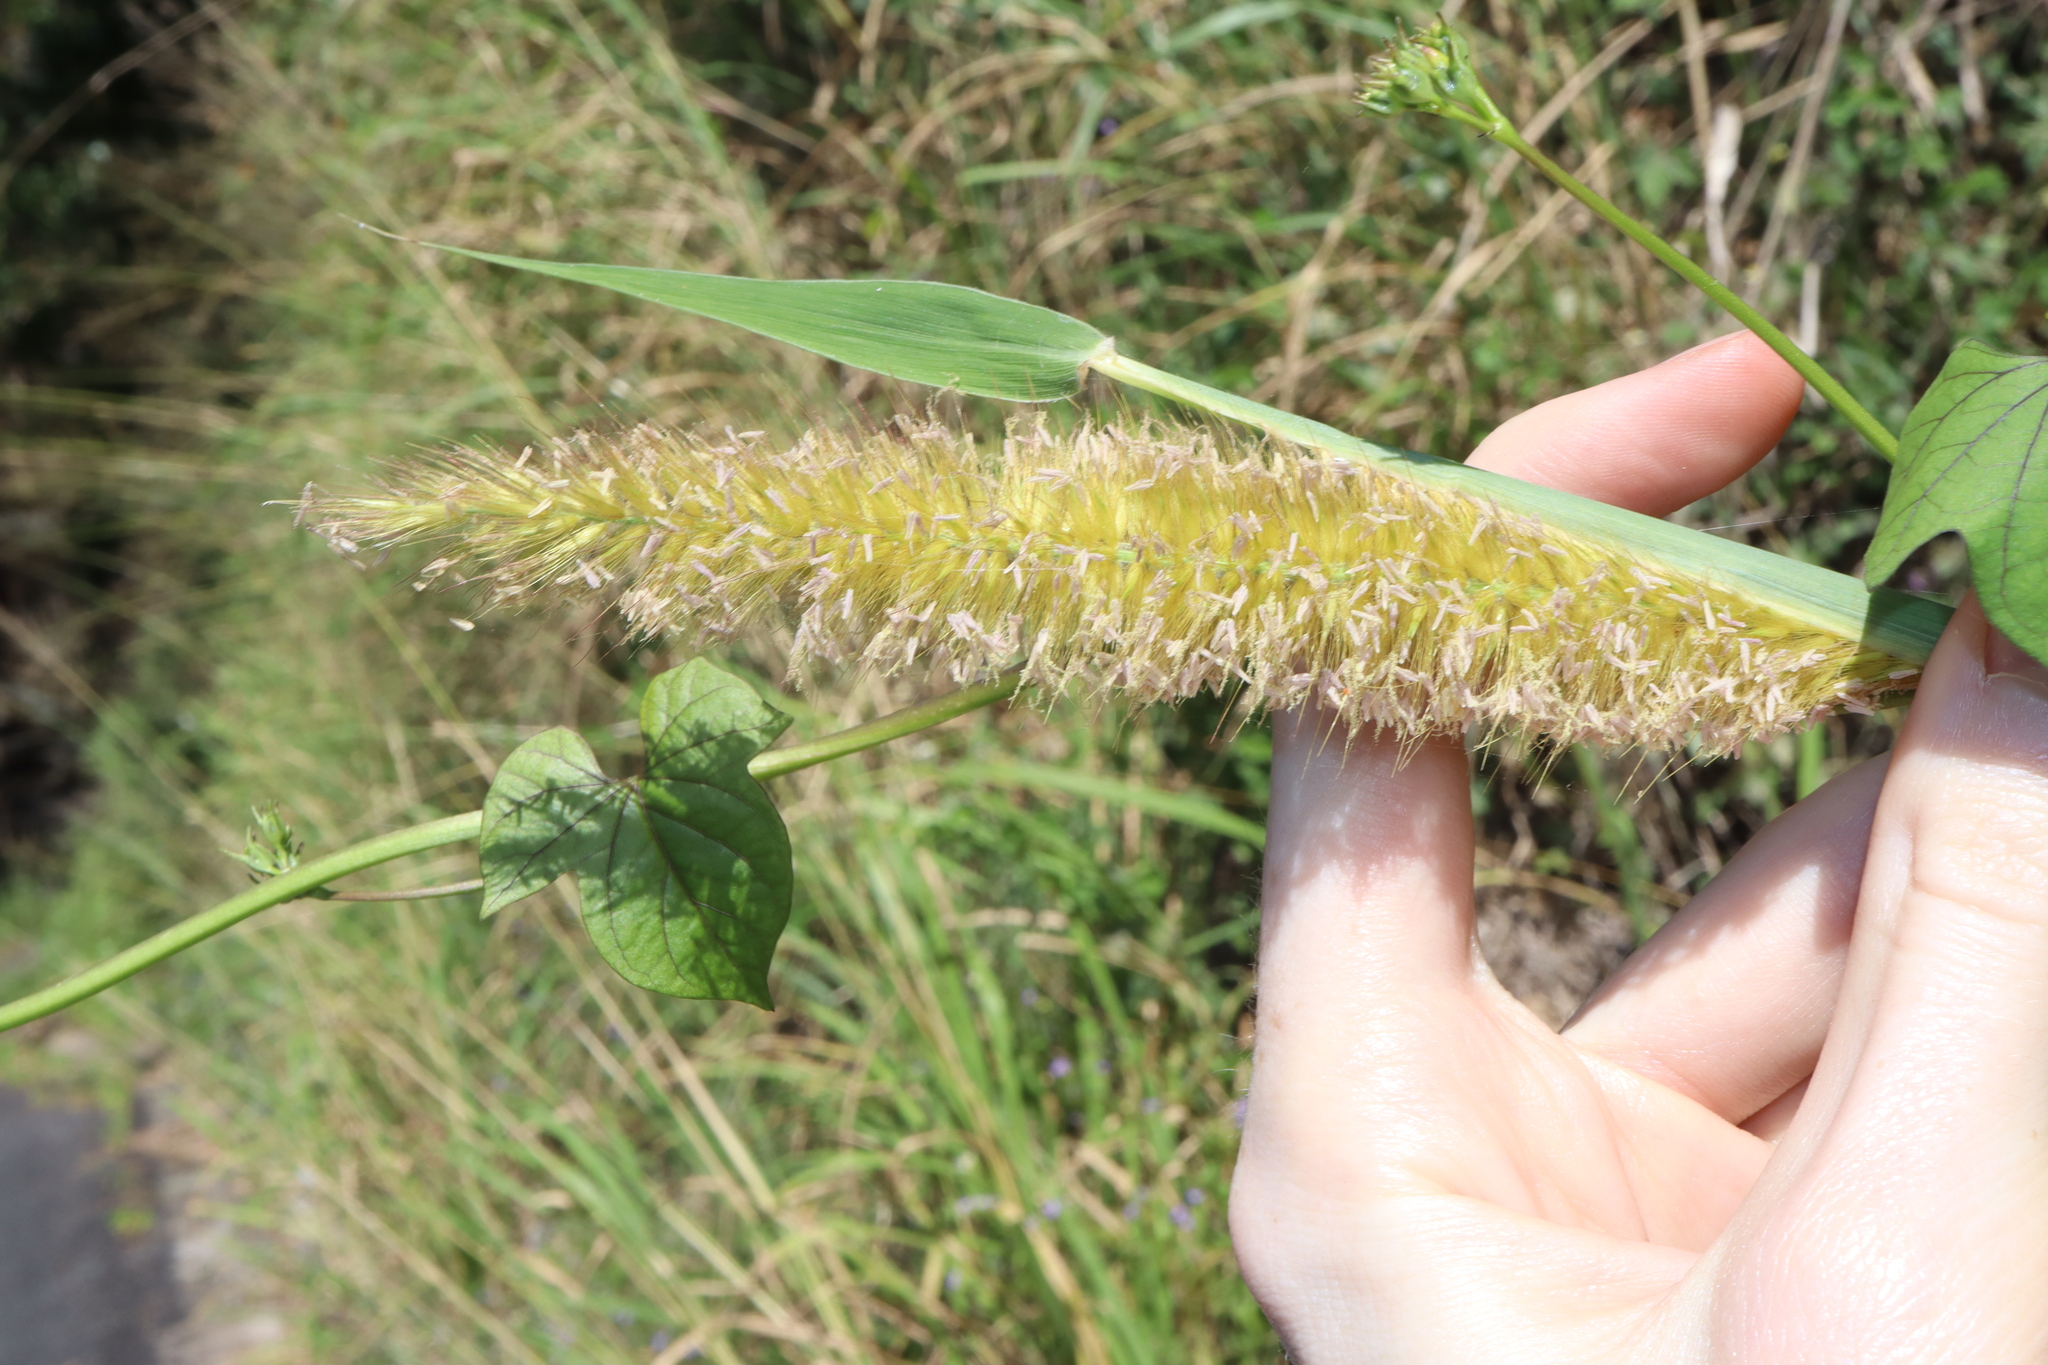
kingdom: Plantae
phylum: Tracheophyta
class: Liliopsida
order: Poales
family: Poaceae
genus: Cenchrus
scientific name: Cenchrus purpureus
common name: Elephant grass
